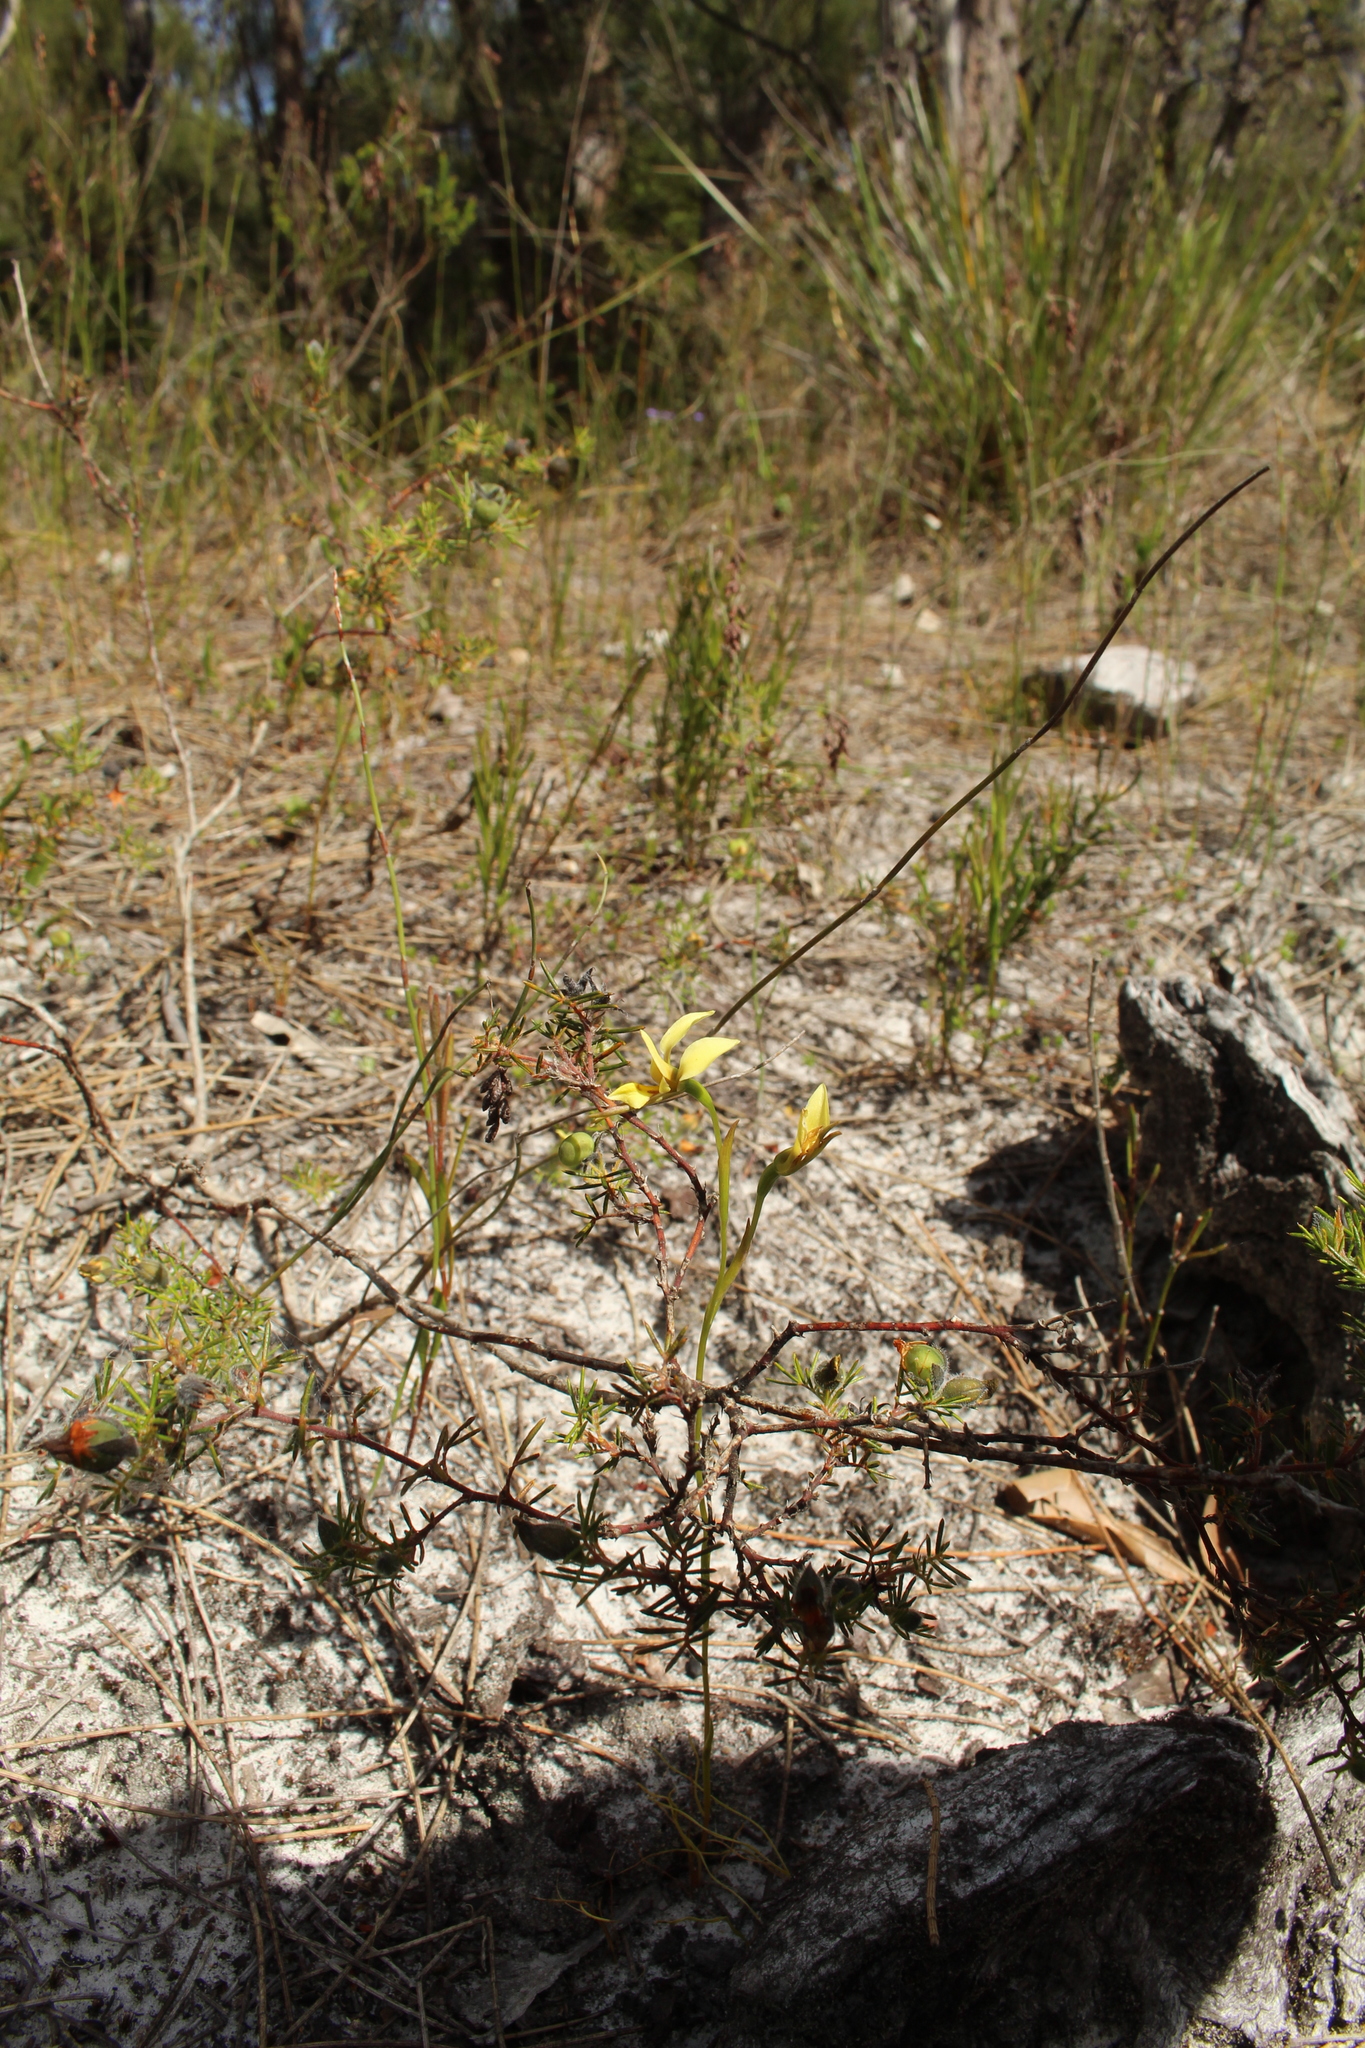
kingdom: Plantae
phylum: Tracheophyta
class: Liliopsida
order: Asparagales
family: Orchidaceae
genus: Diuris
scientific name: Diuris setacea
